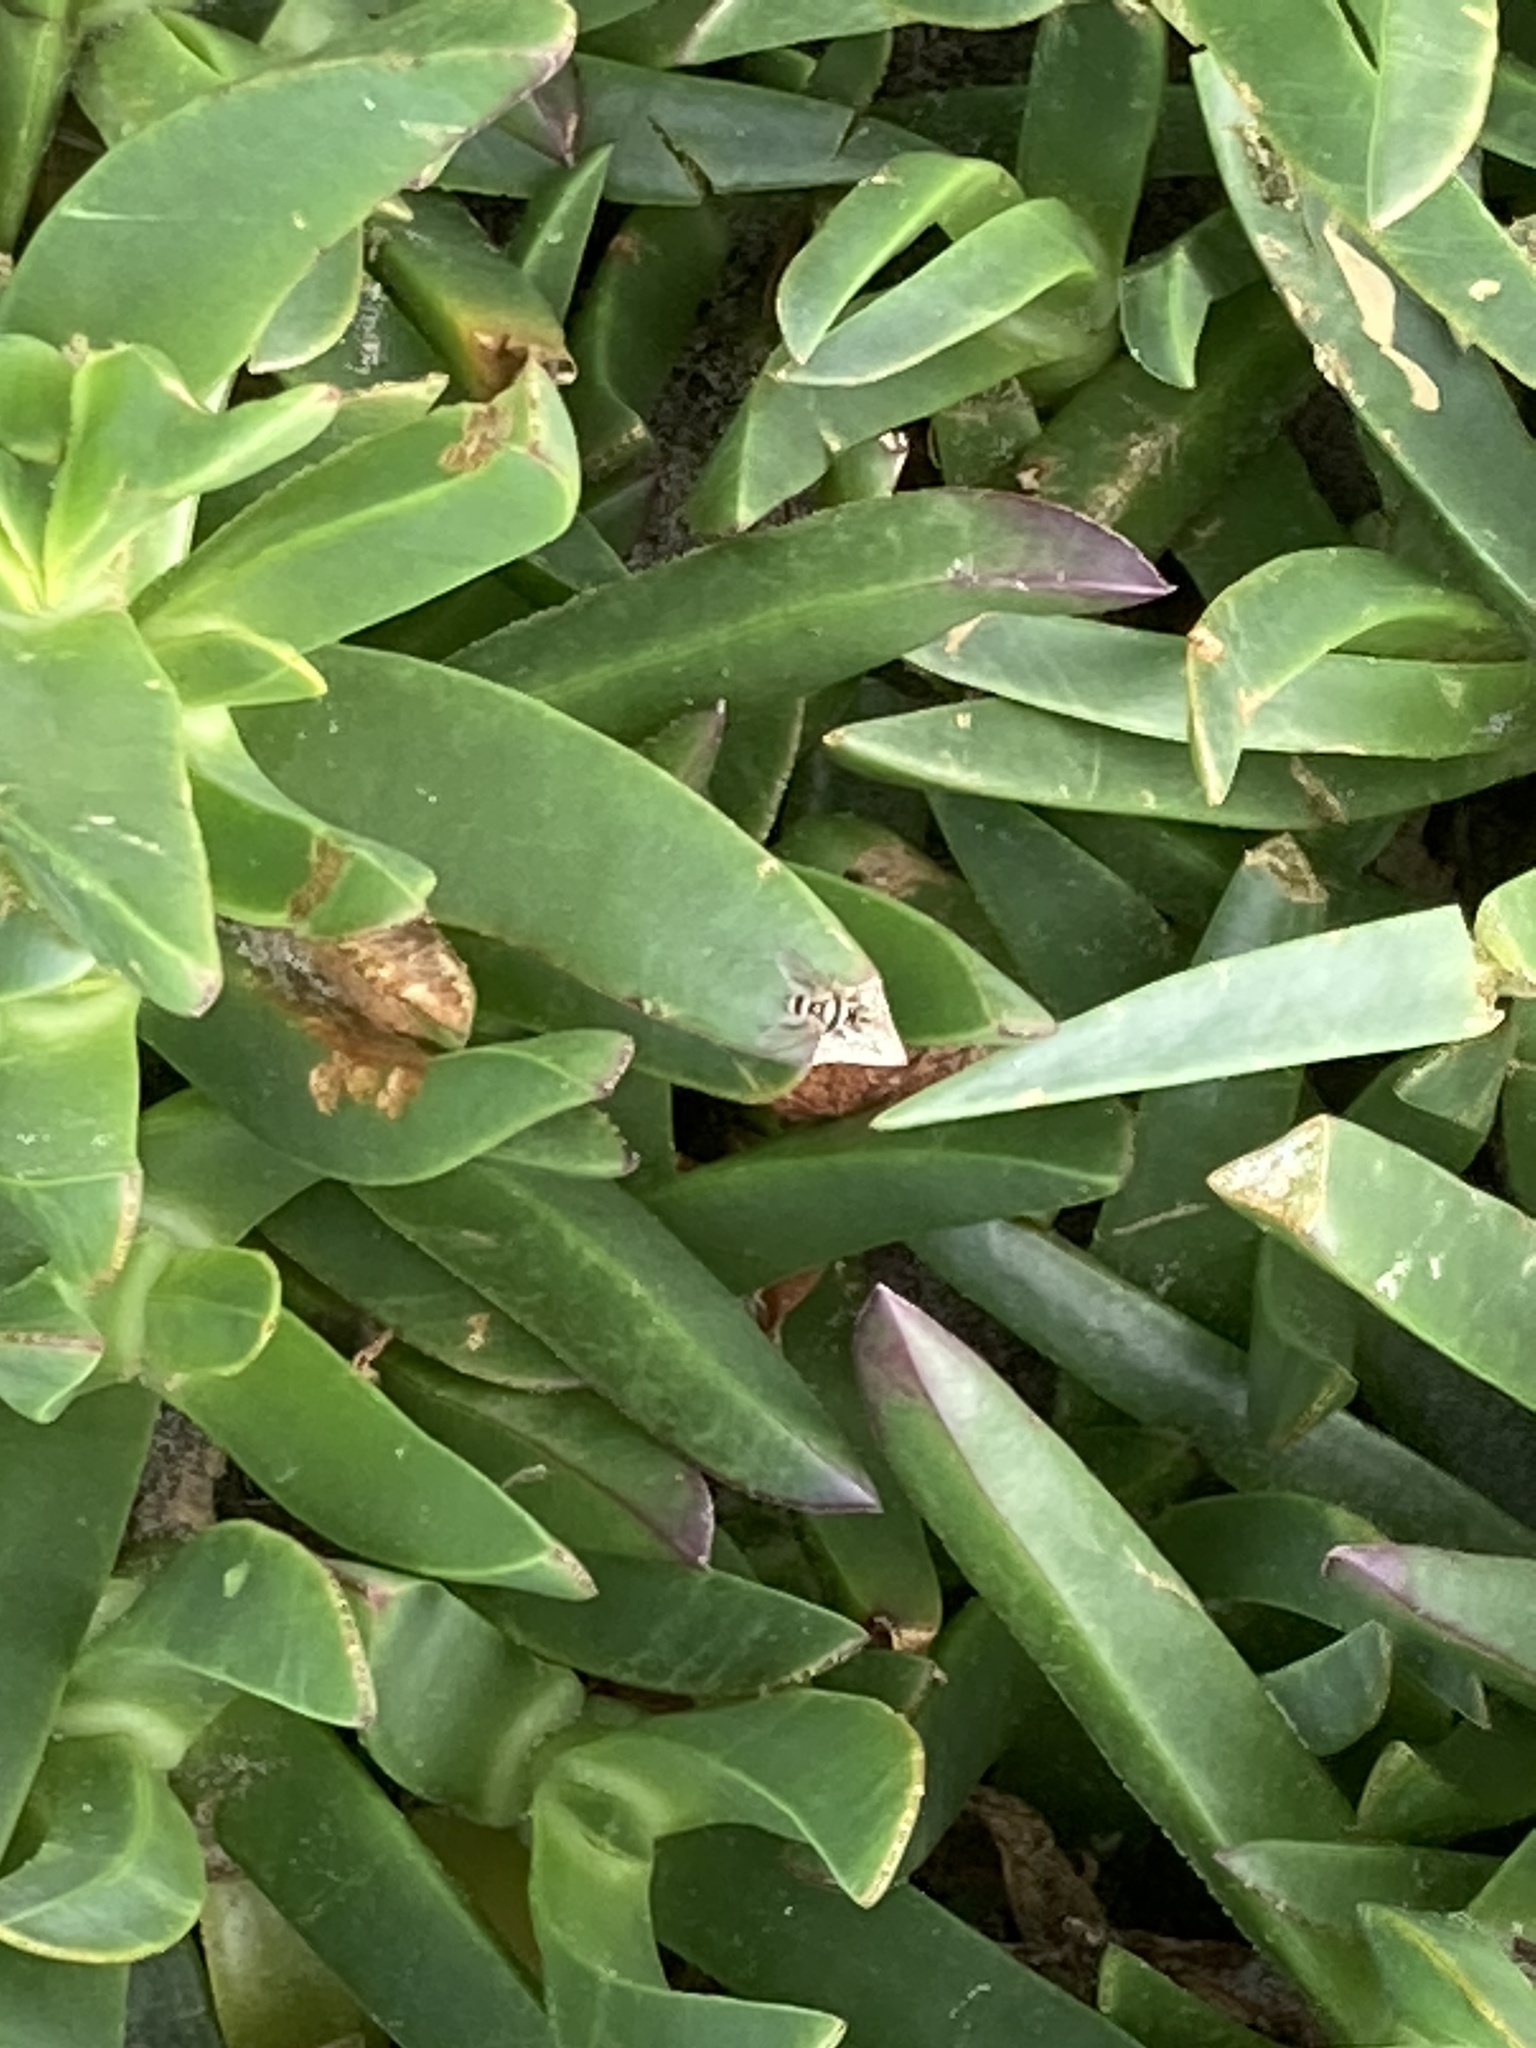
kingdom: Animalia
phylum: Arthropoda
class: Insecta
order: Diptera
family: Tachinidae
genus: Trigonospila
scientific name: Trigonospila brevifacies
